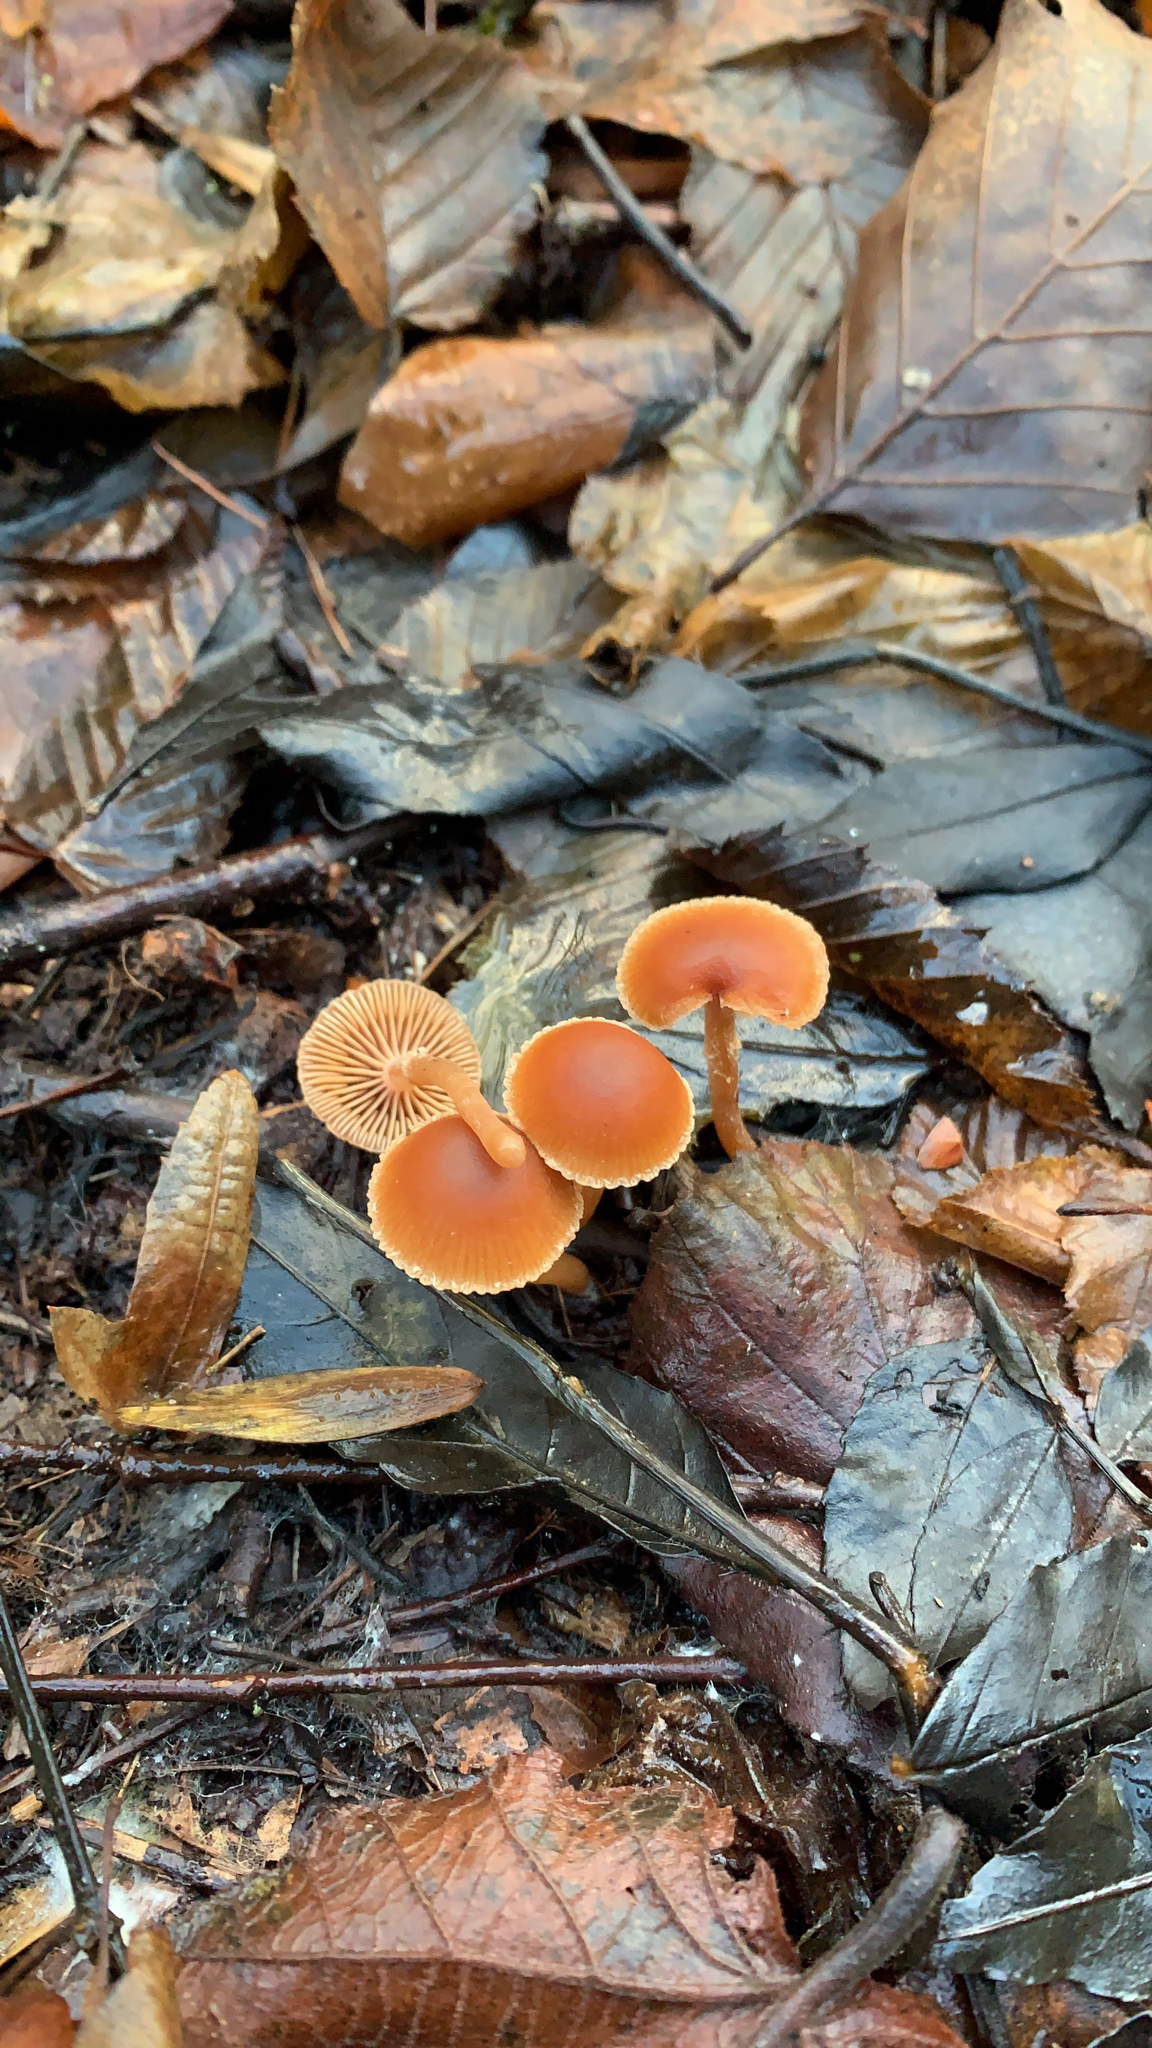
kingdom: Fungi
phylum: Basidiomycota
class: Agaricomycetes
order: Agaricales
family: Tubariaceae
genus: Tubaria
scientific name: Tubaria furfuracea
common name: Scurfy twiglet
